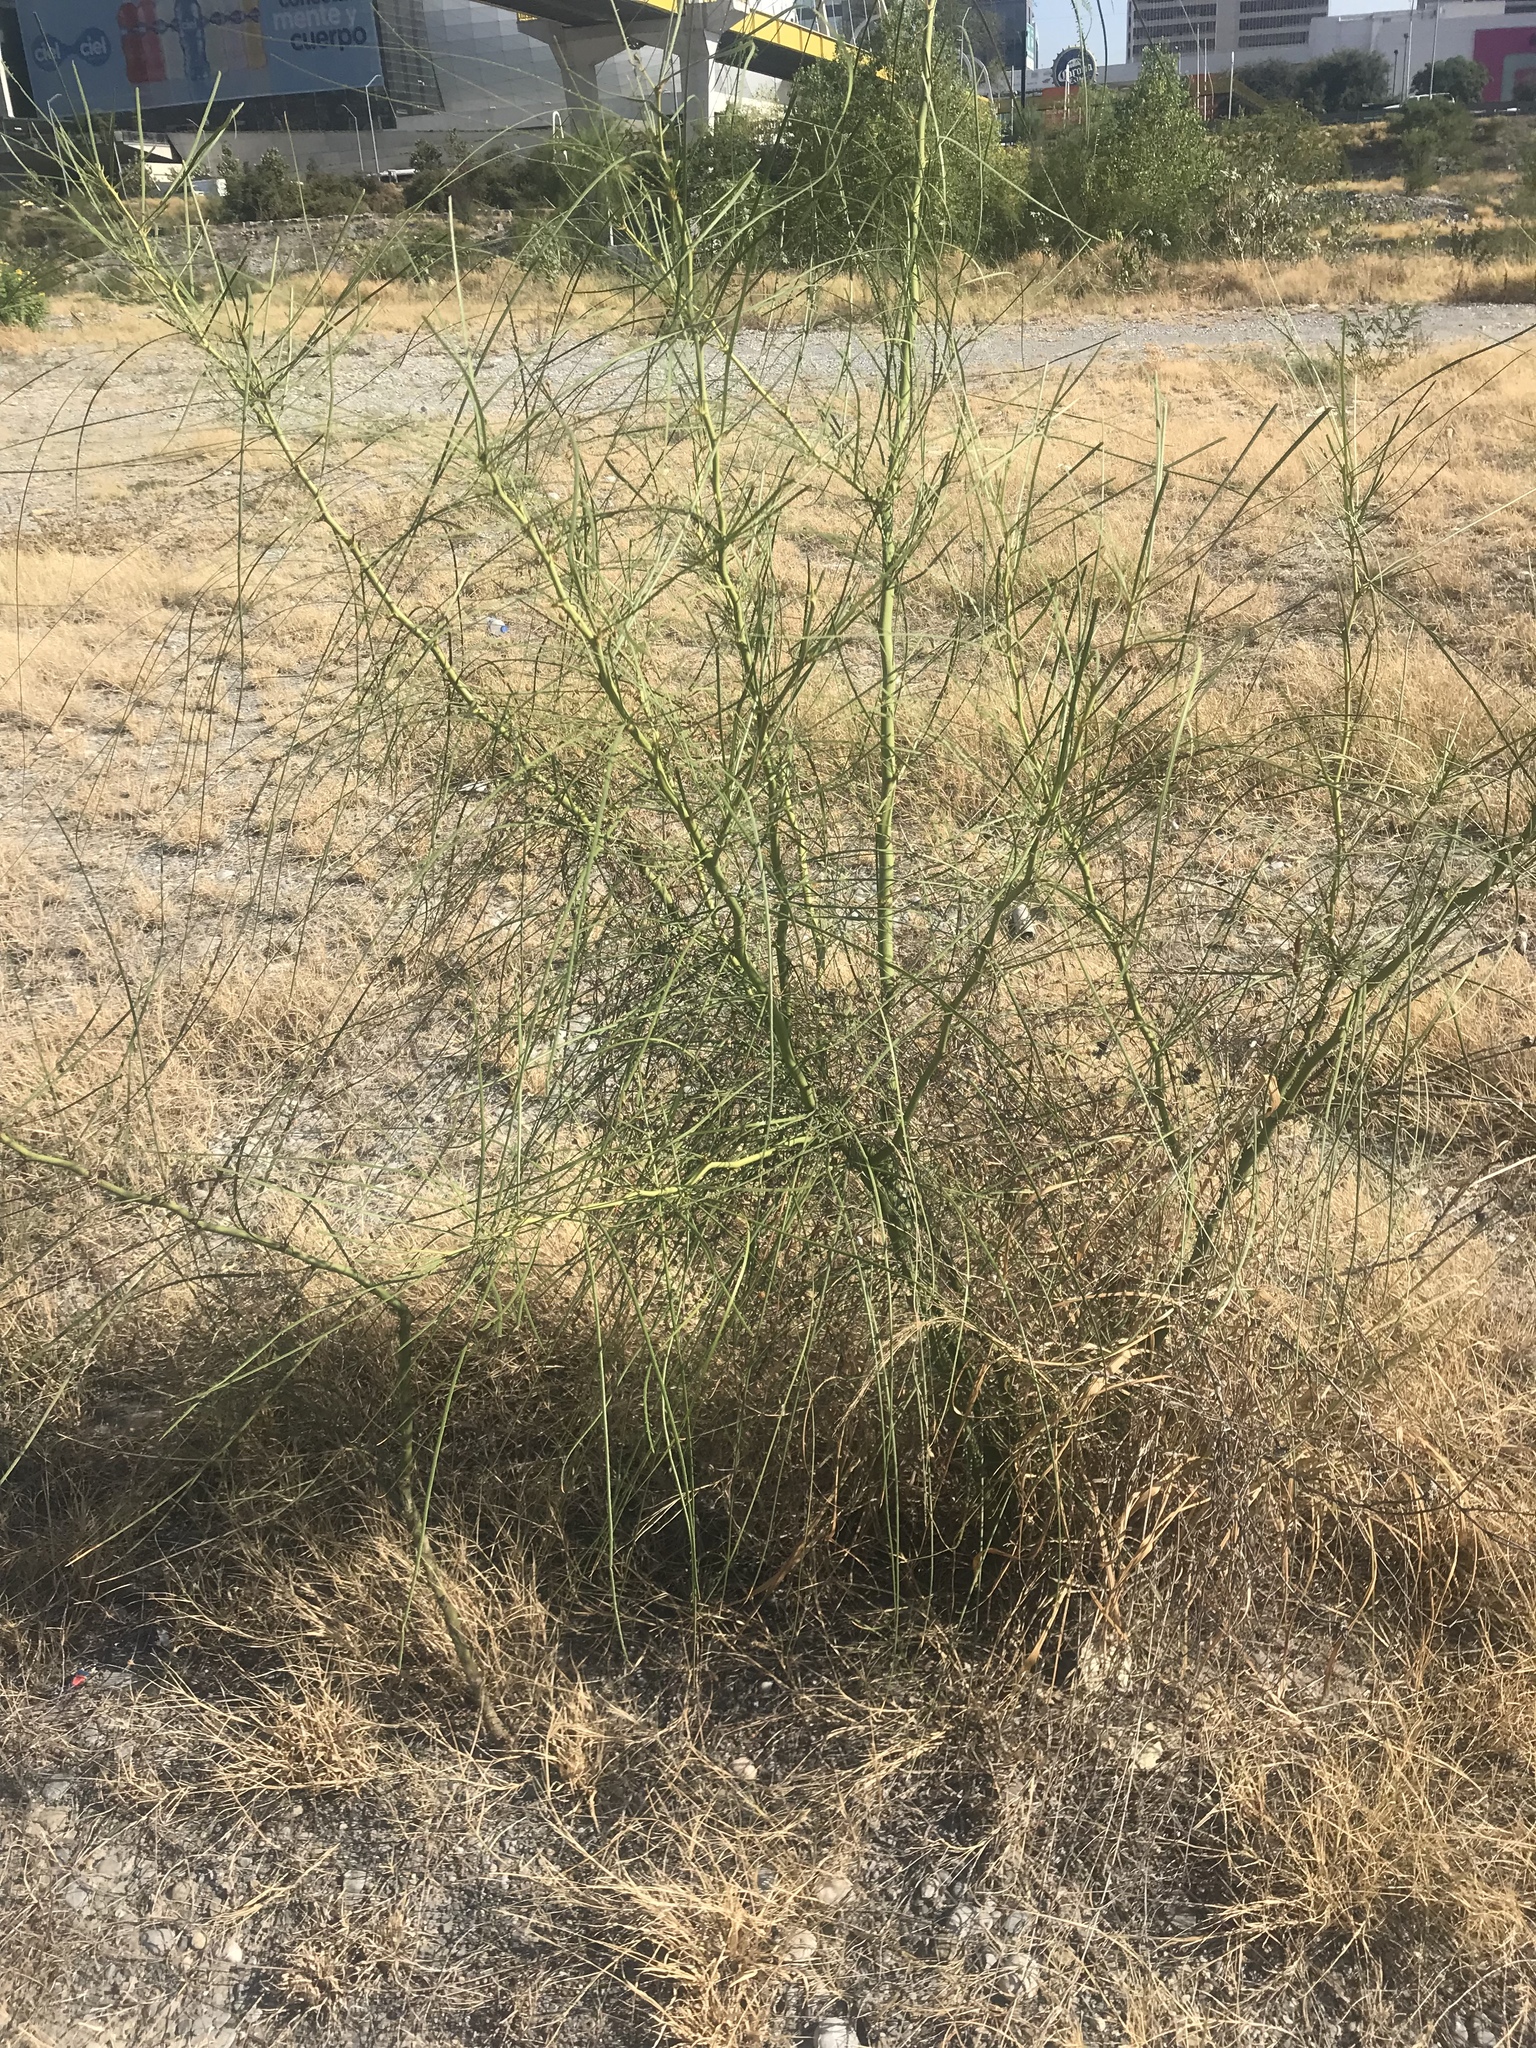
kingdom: Plantae
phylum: Tracheophyta
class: Magnoliopsida
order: Fabales
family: Fabaceae
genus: Parkinsonia
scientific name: Parkinsonia aculeata
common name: Jerusalem thorn
